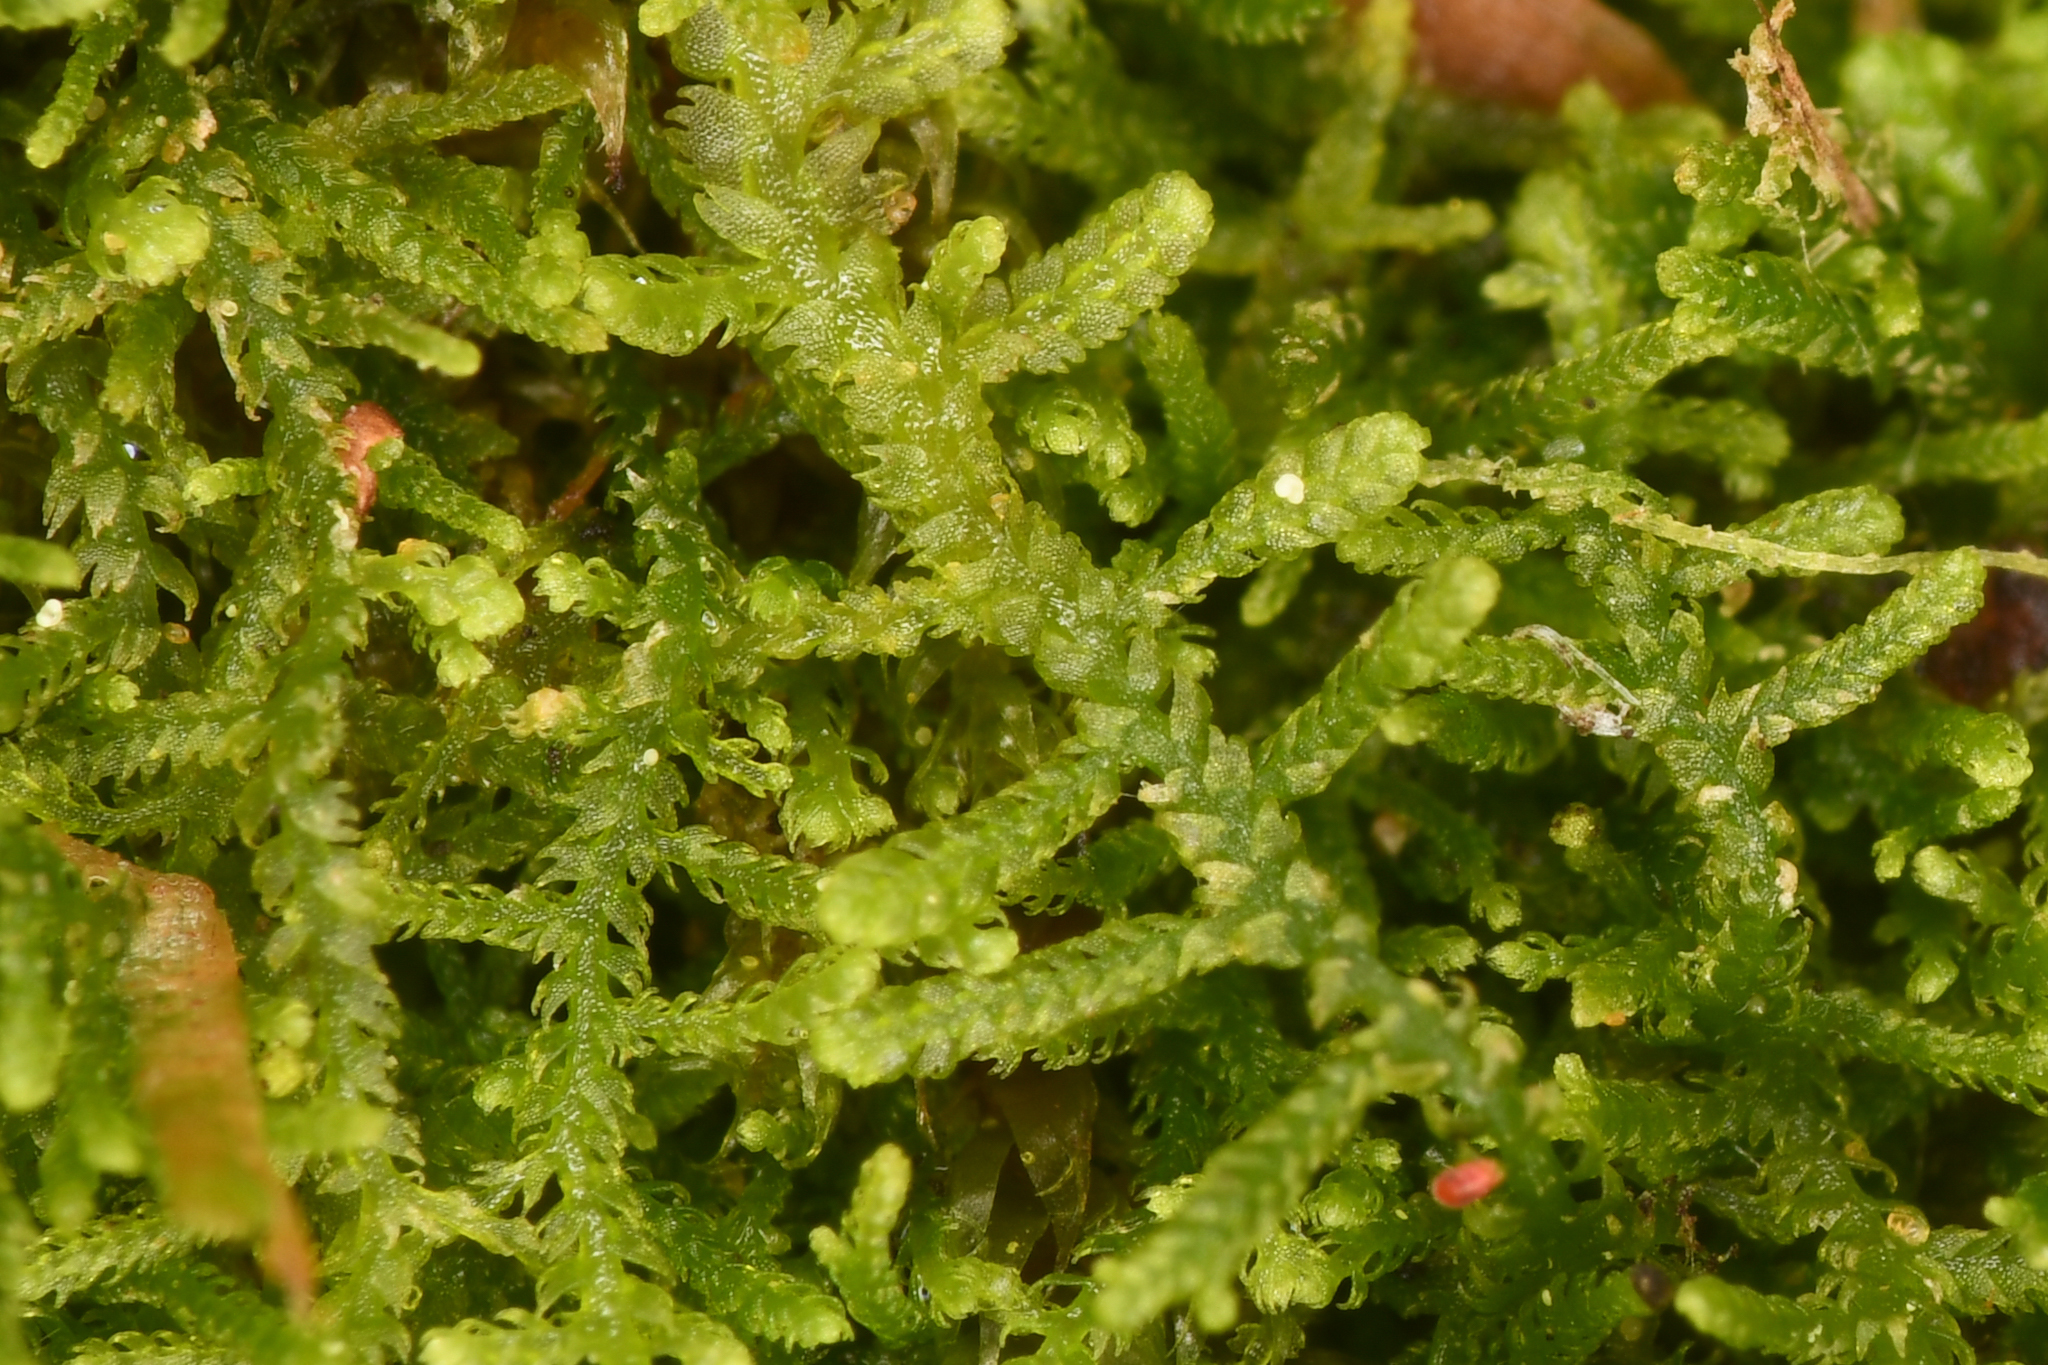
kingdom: Plantae
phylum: Marchantiophyta
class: Jungermanniopsida
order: Jungermanniales
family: Lepidoziaceae
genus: Lepidozia
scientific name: Lepidozia reptans
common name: Creeping fingerwort
